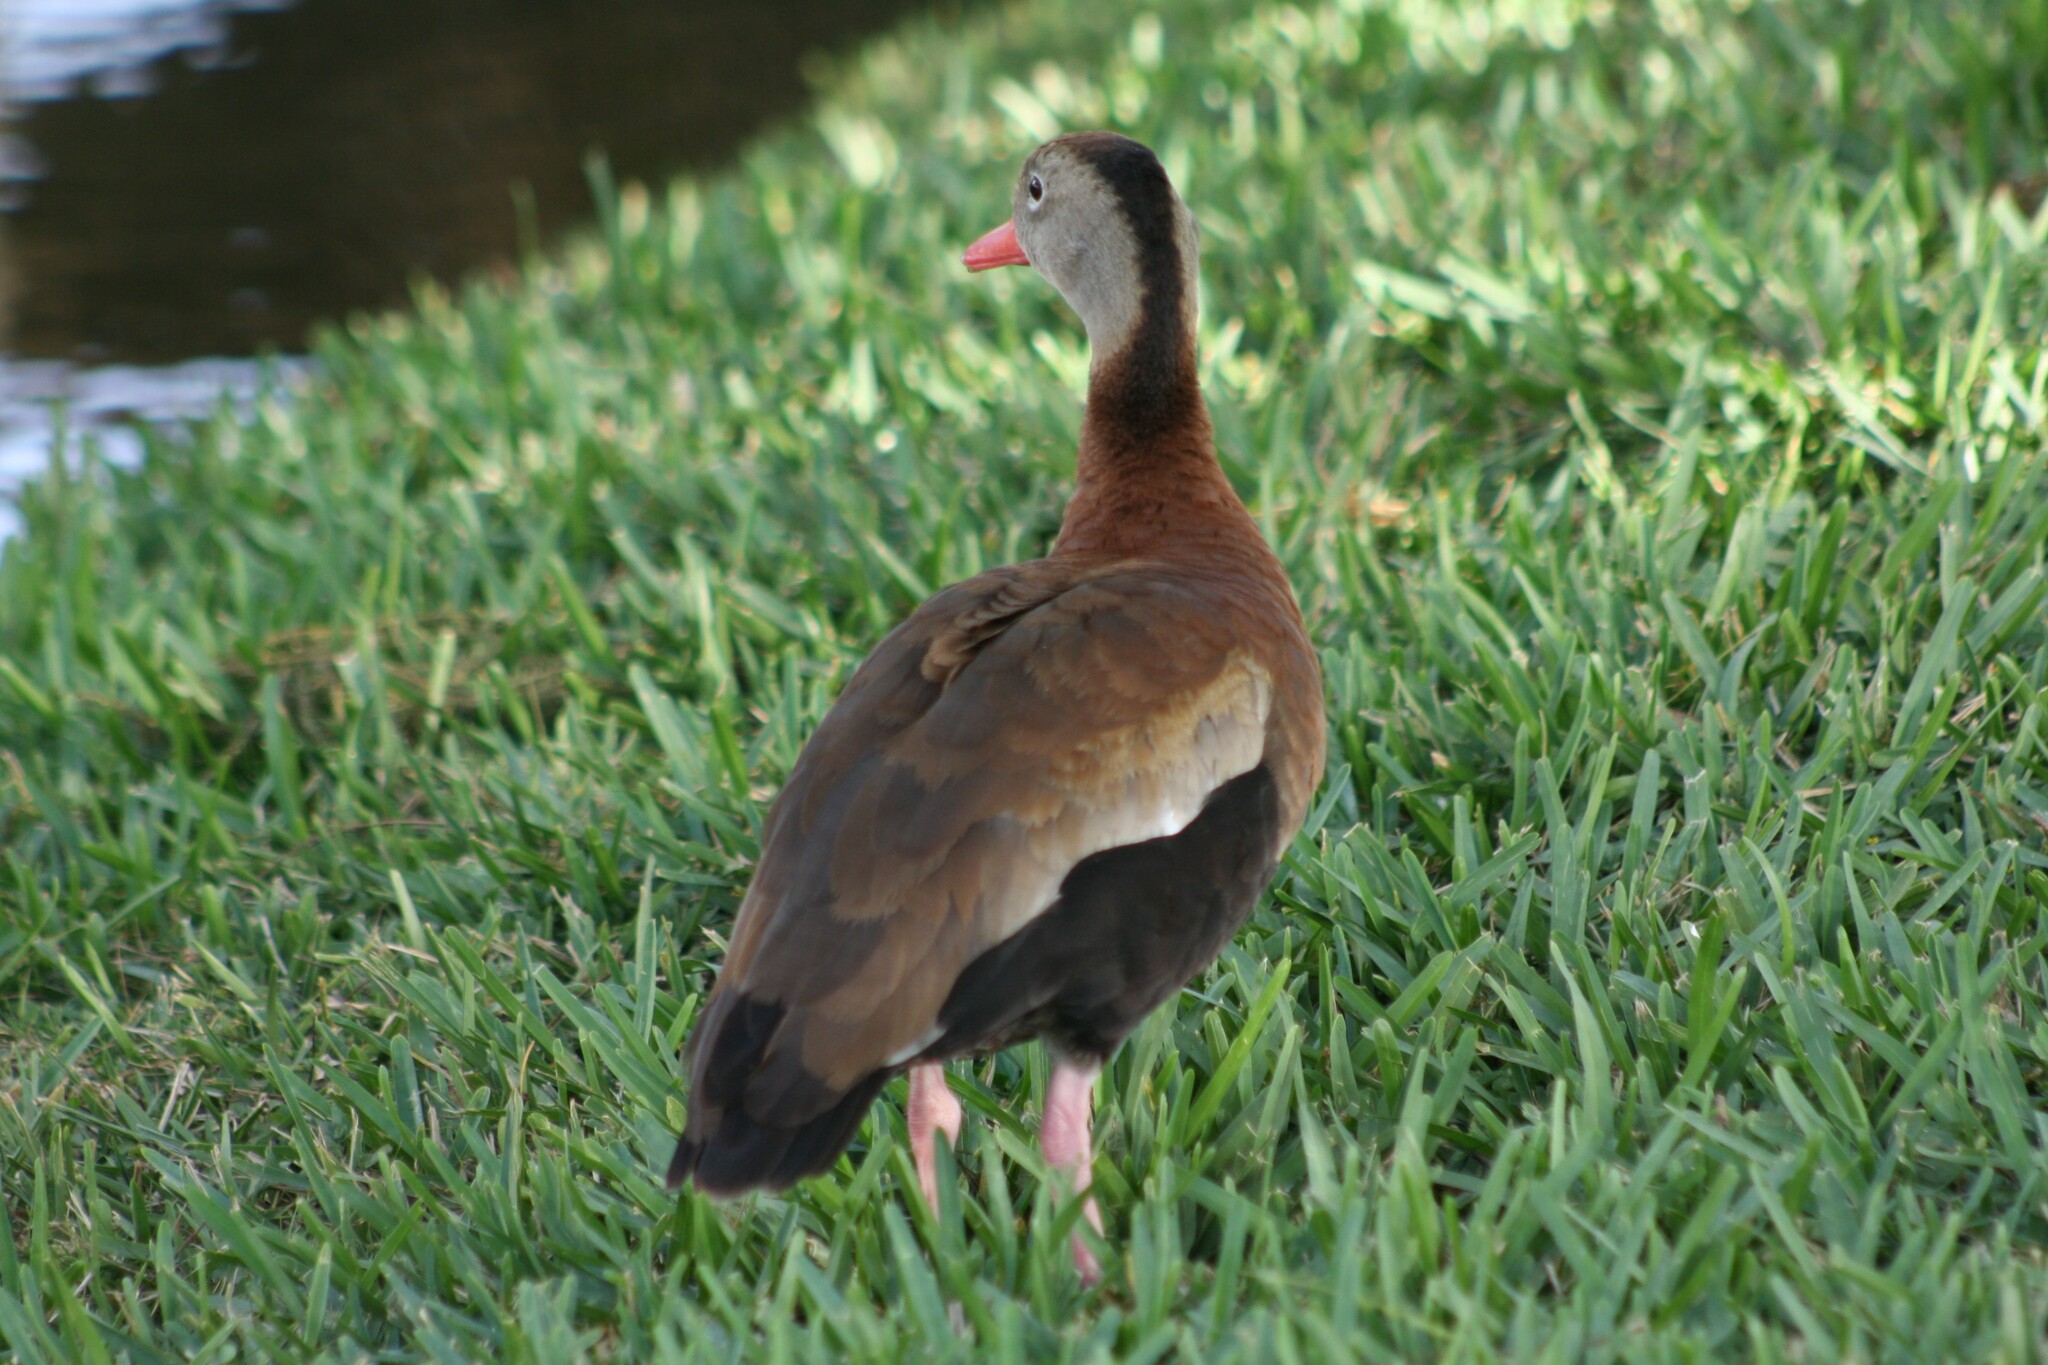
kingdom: Animalia
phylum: Chordata
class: Aves
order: Anseriformes
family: Anatidae
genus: Dendrocygna
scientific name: Dendrocygna autumnalis
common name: Black-bellied whistling duck
